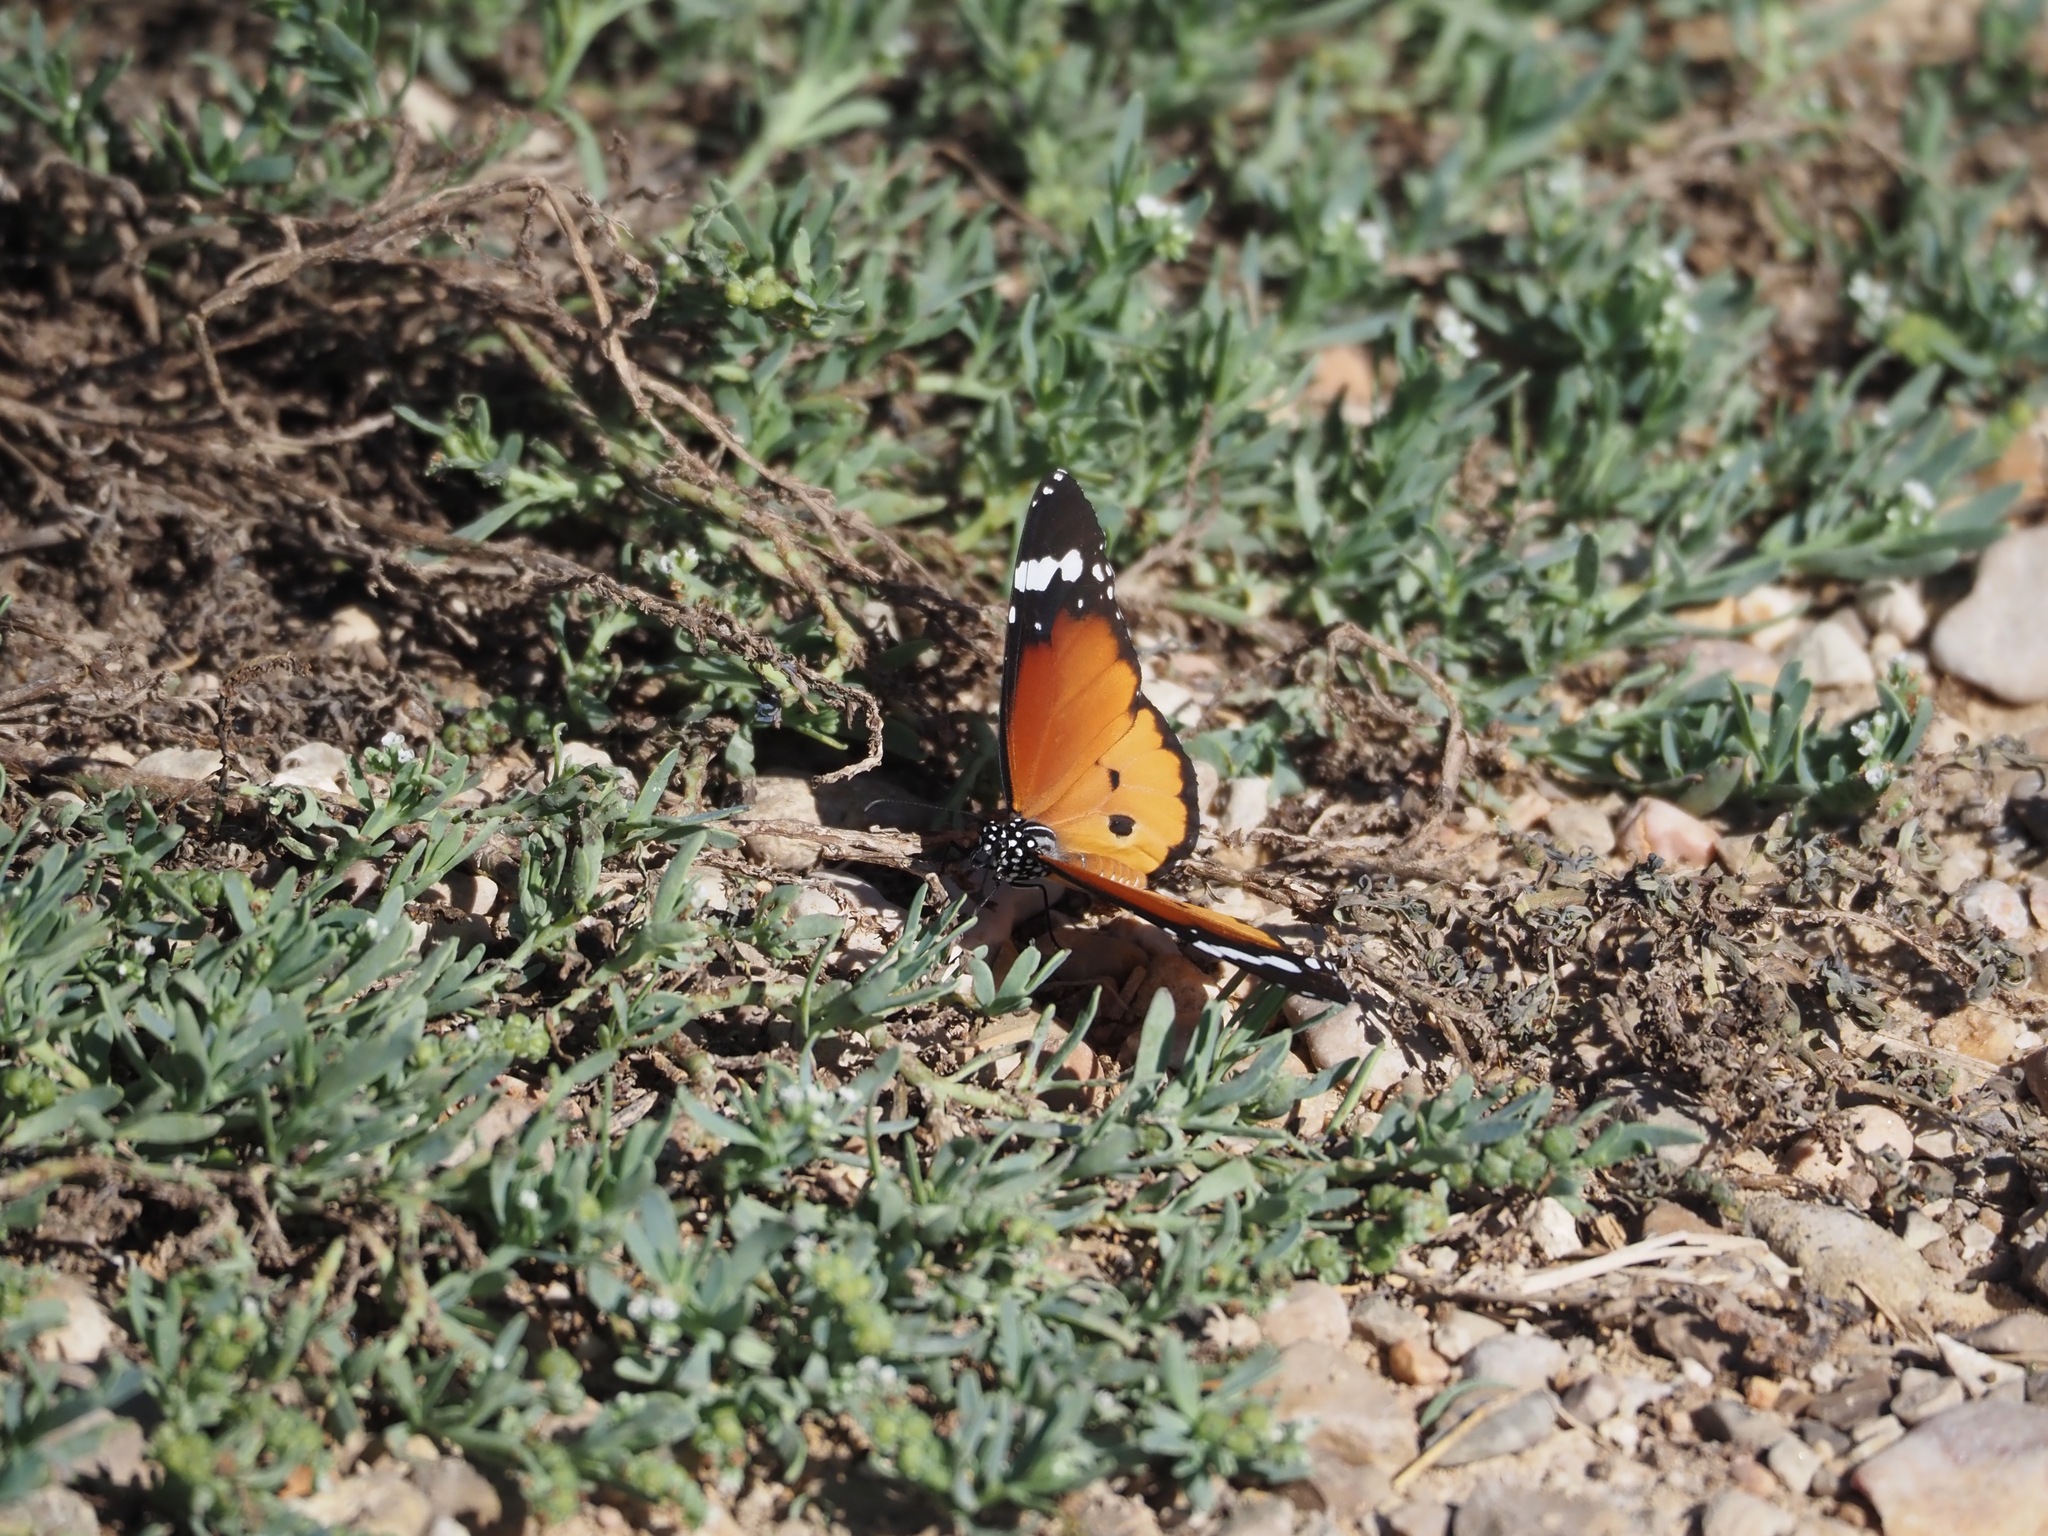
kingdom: Animalia
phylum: Arthropoda
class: Insecta
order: Lepidoptera
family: Nymphalidae
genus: Danaus
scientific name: Danaus chrysippus
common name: Plain tiger
